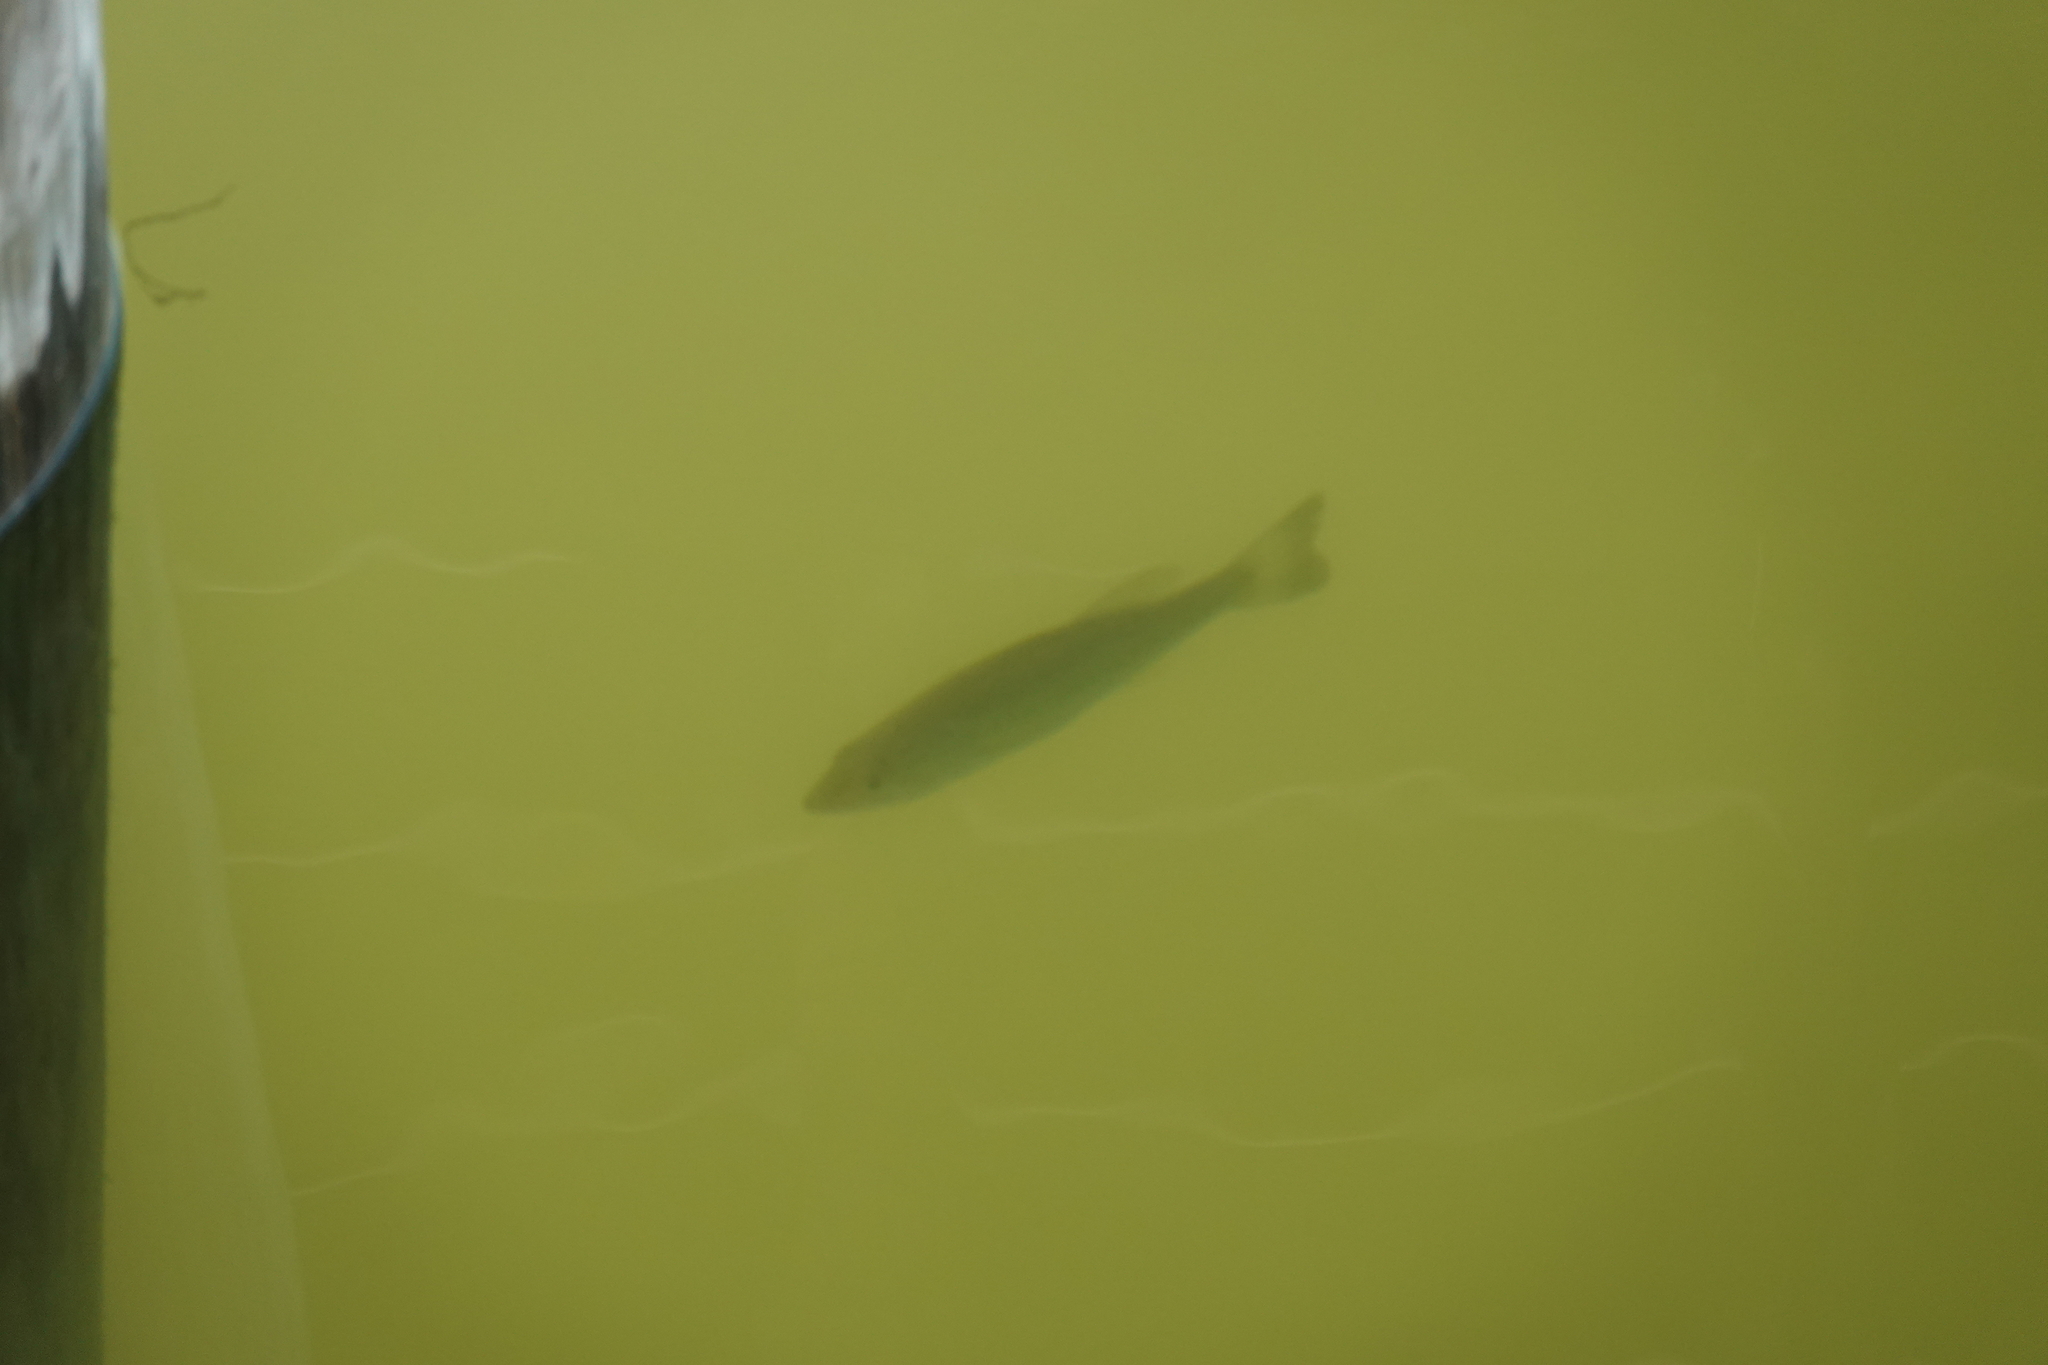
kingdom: Animalia
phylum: Chordata
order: Perciformes
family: Centrarchidae
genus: Micropterus
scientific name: Micropterus salmoides
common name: Largemouth bass
